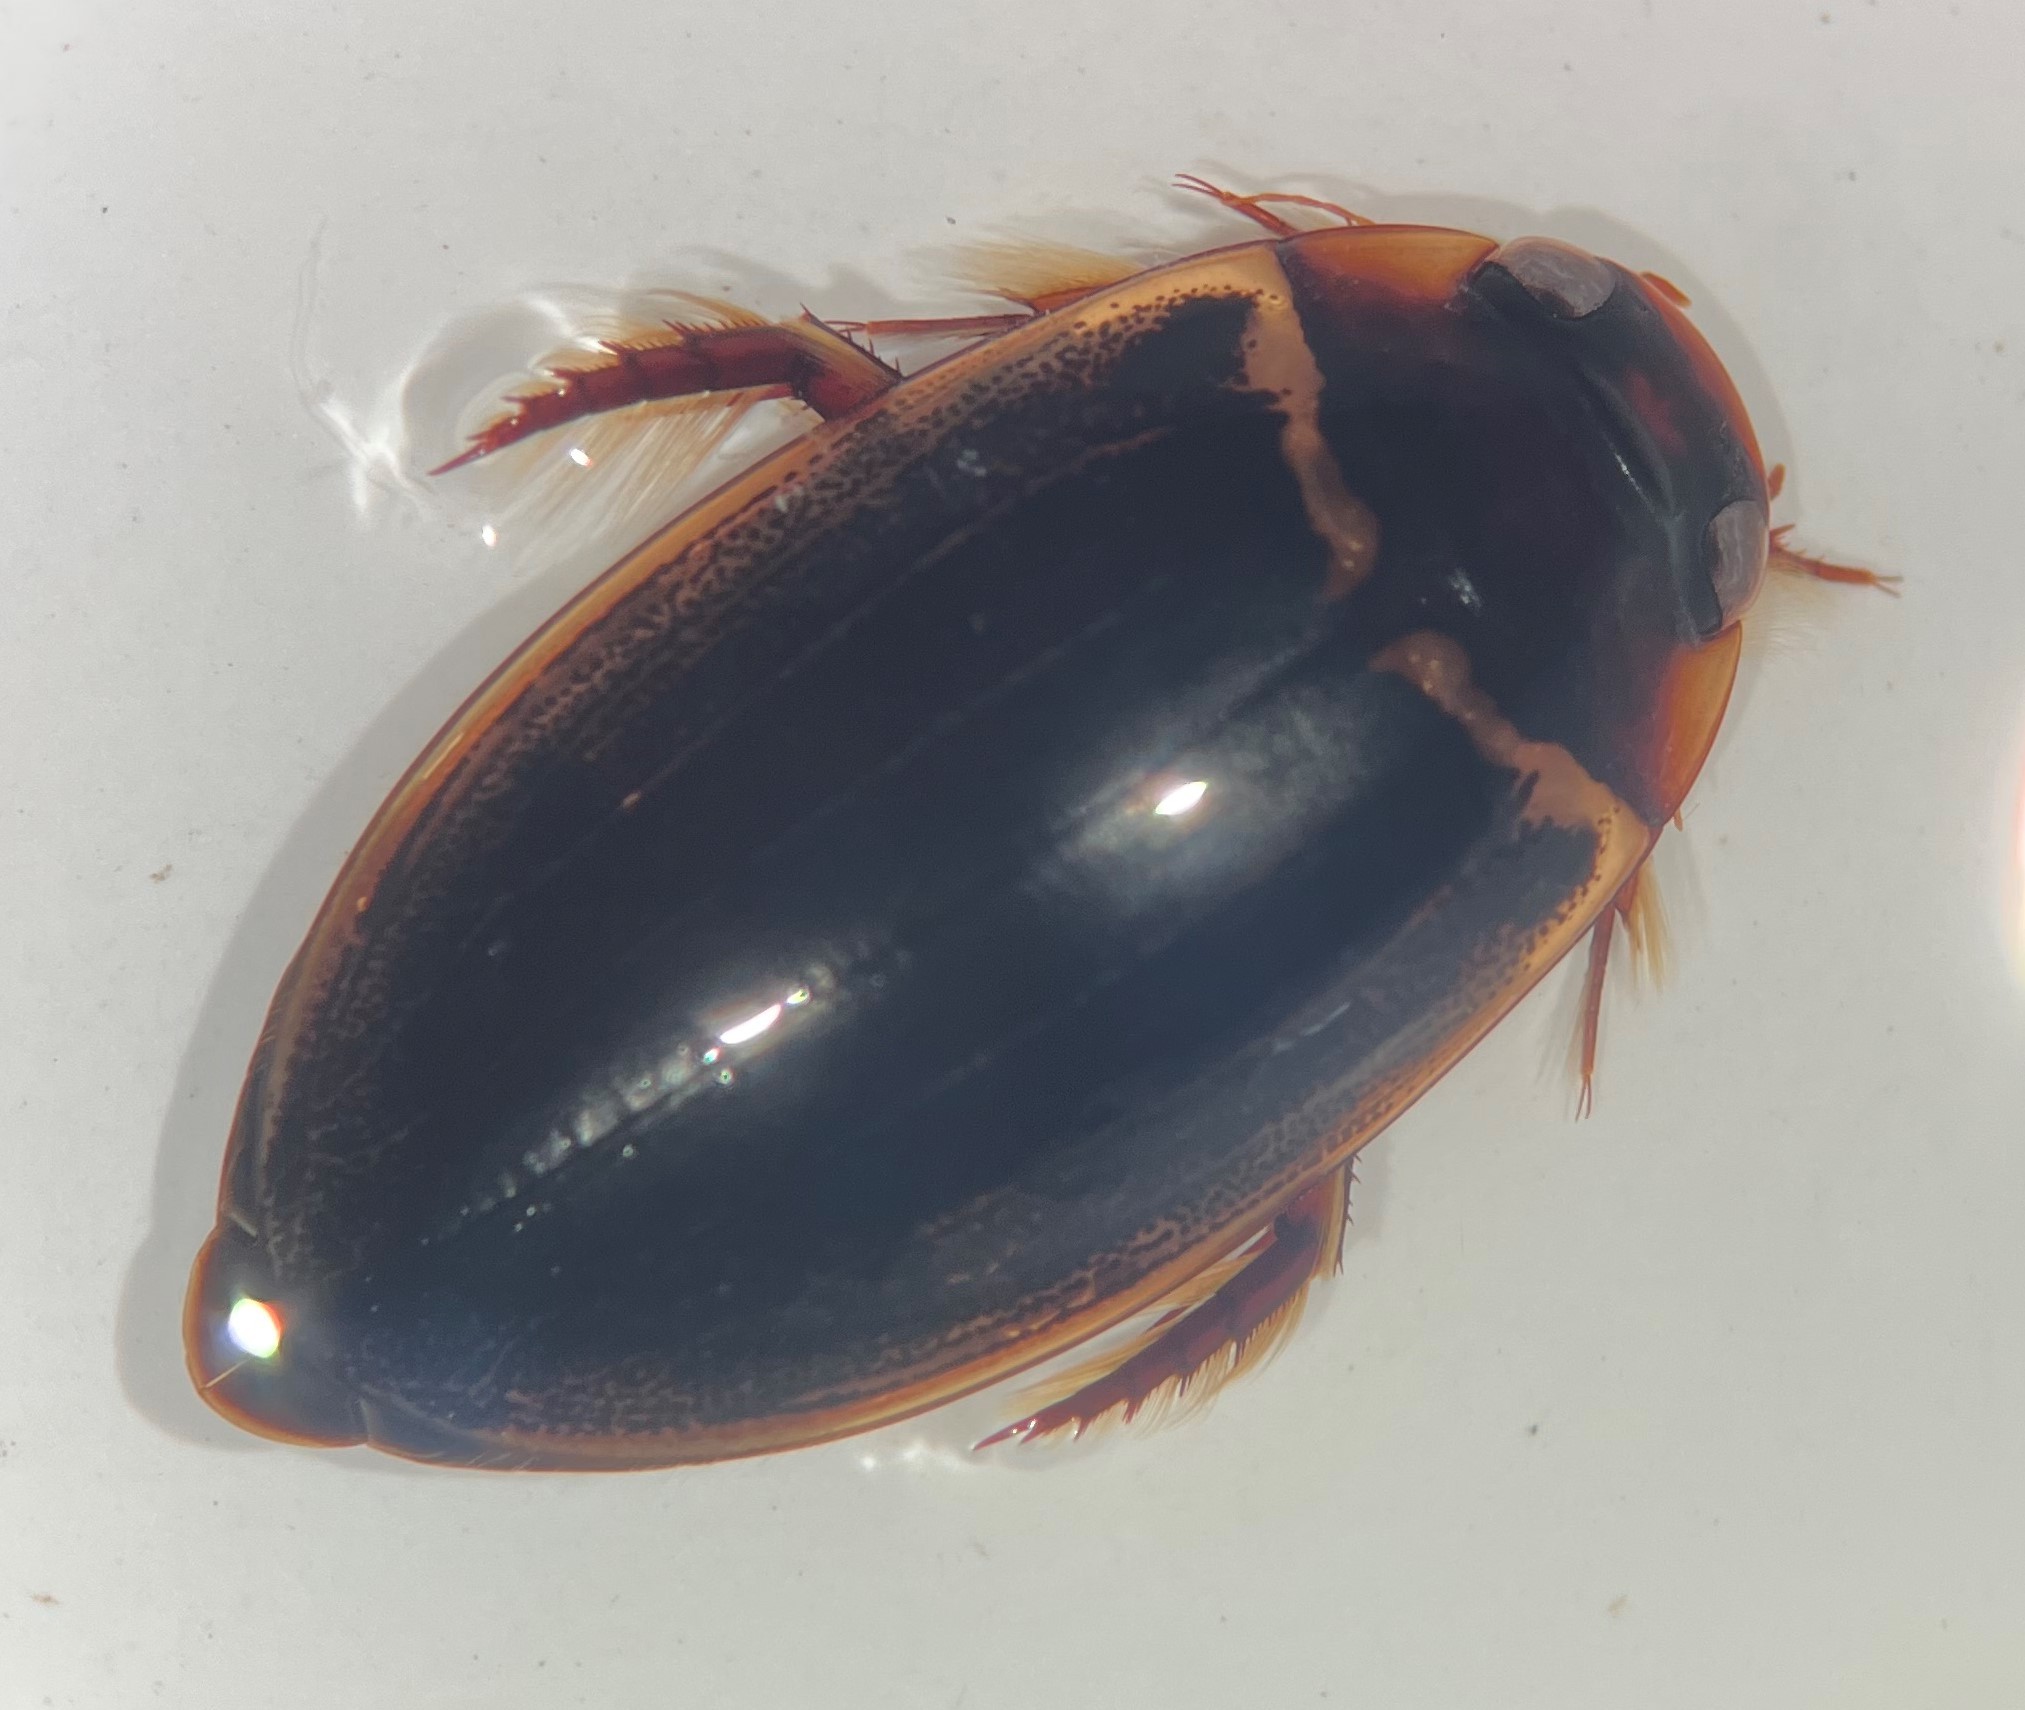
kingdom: Animalia
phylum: Arthropoda
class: Insecta
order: Coleoptera
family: Dytiscidae
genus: Meridiorhantus
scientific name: Meridiorhantus calidus
